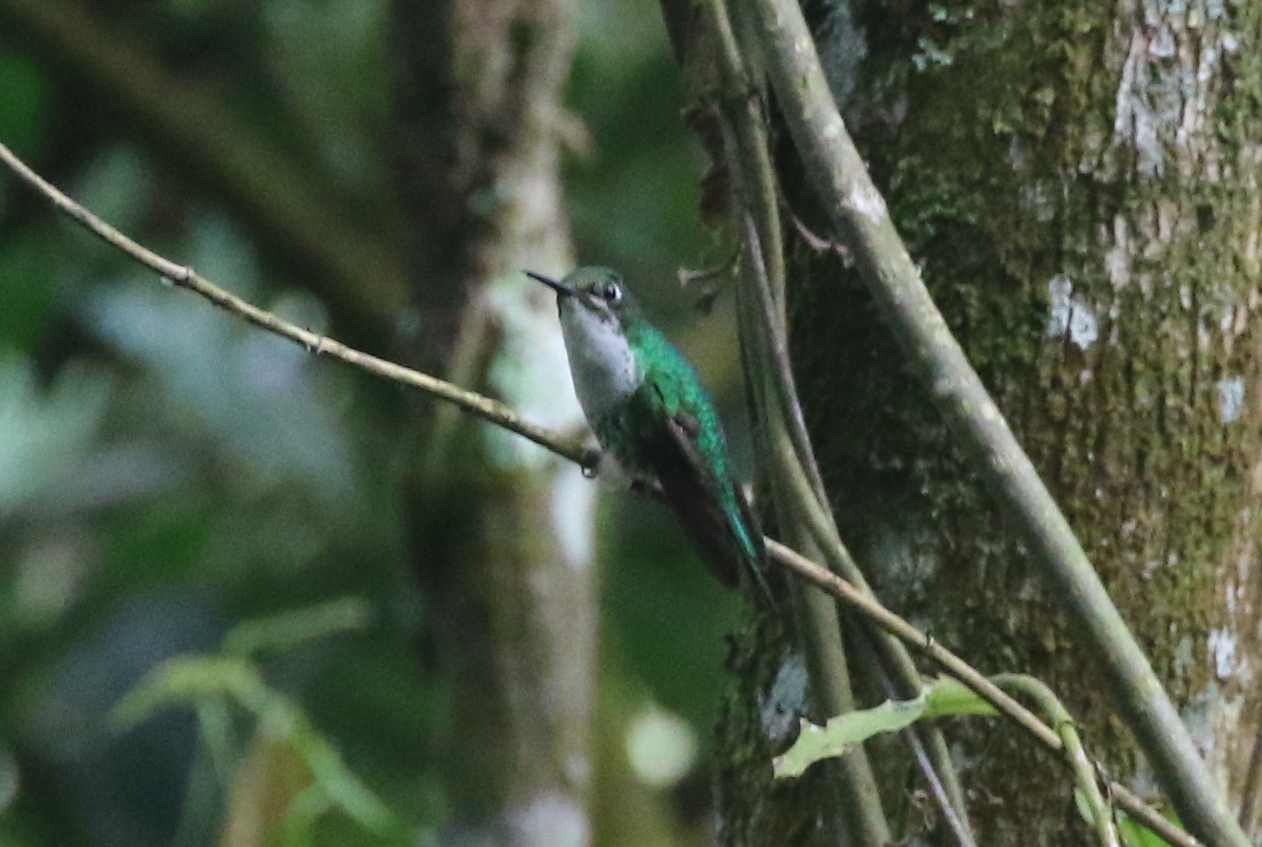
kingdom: Animalia
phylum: Chordata
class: Aves
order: Apodiformes
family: Trochilidae
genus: Ocreatus
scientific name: Ocreatus underwoodii
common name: Booted racket-tail
